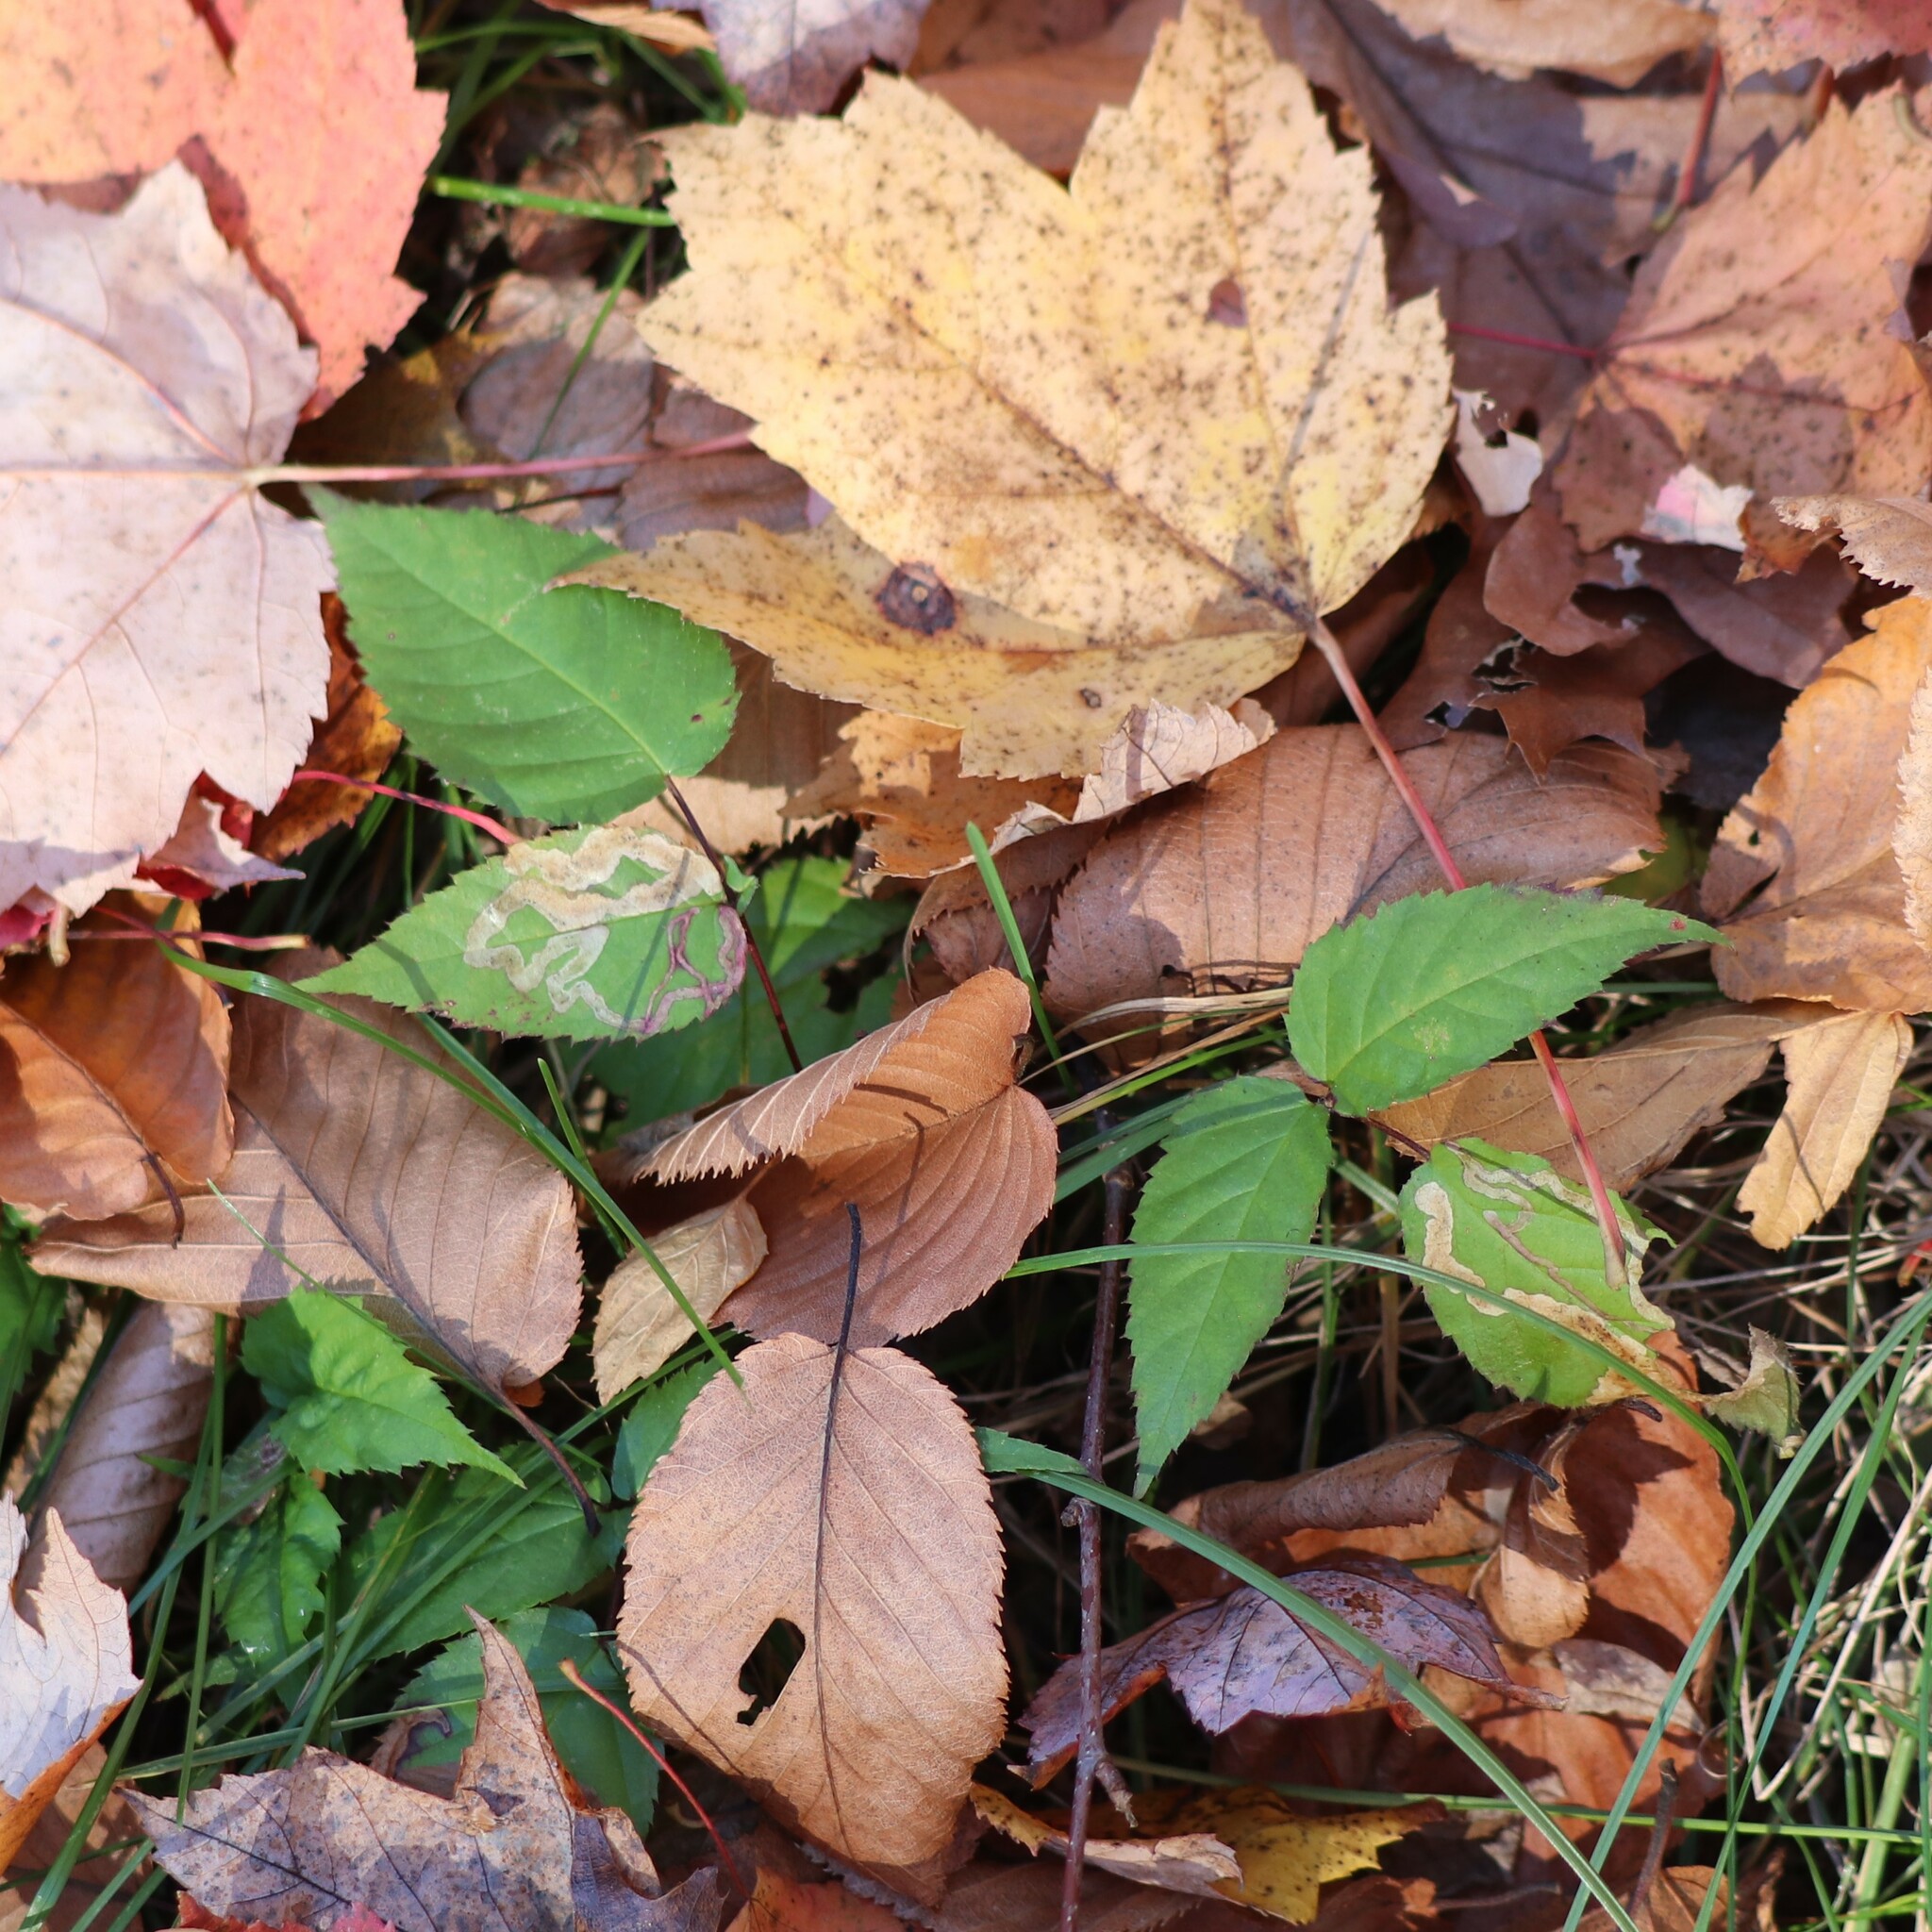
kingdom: Animalia
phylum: Arthropoda
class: Insecta
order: Diptera
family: Agromyzidae
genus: Agromyza
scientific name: Agromyza vockerothi
